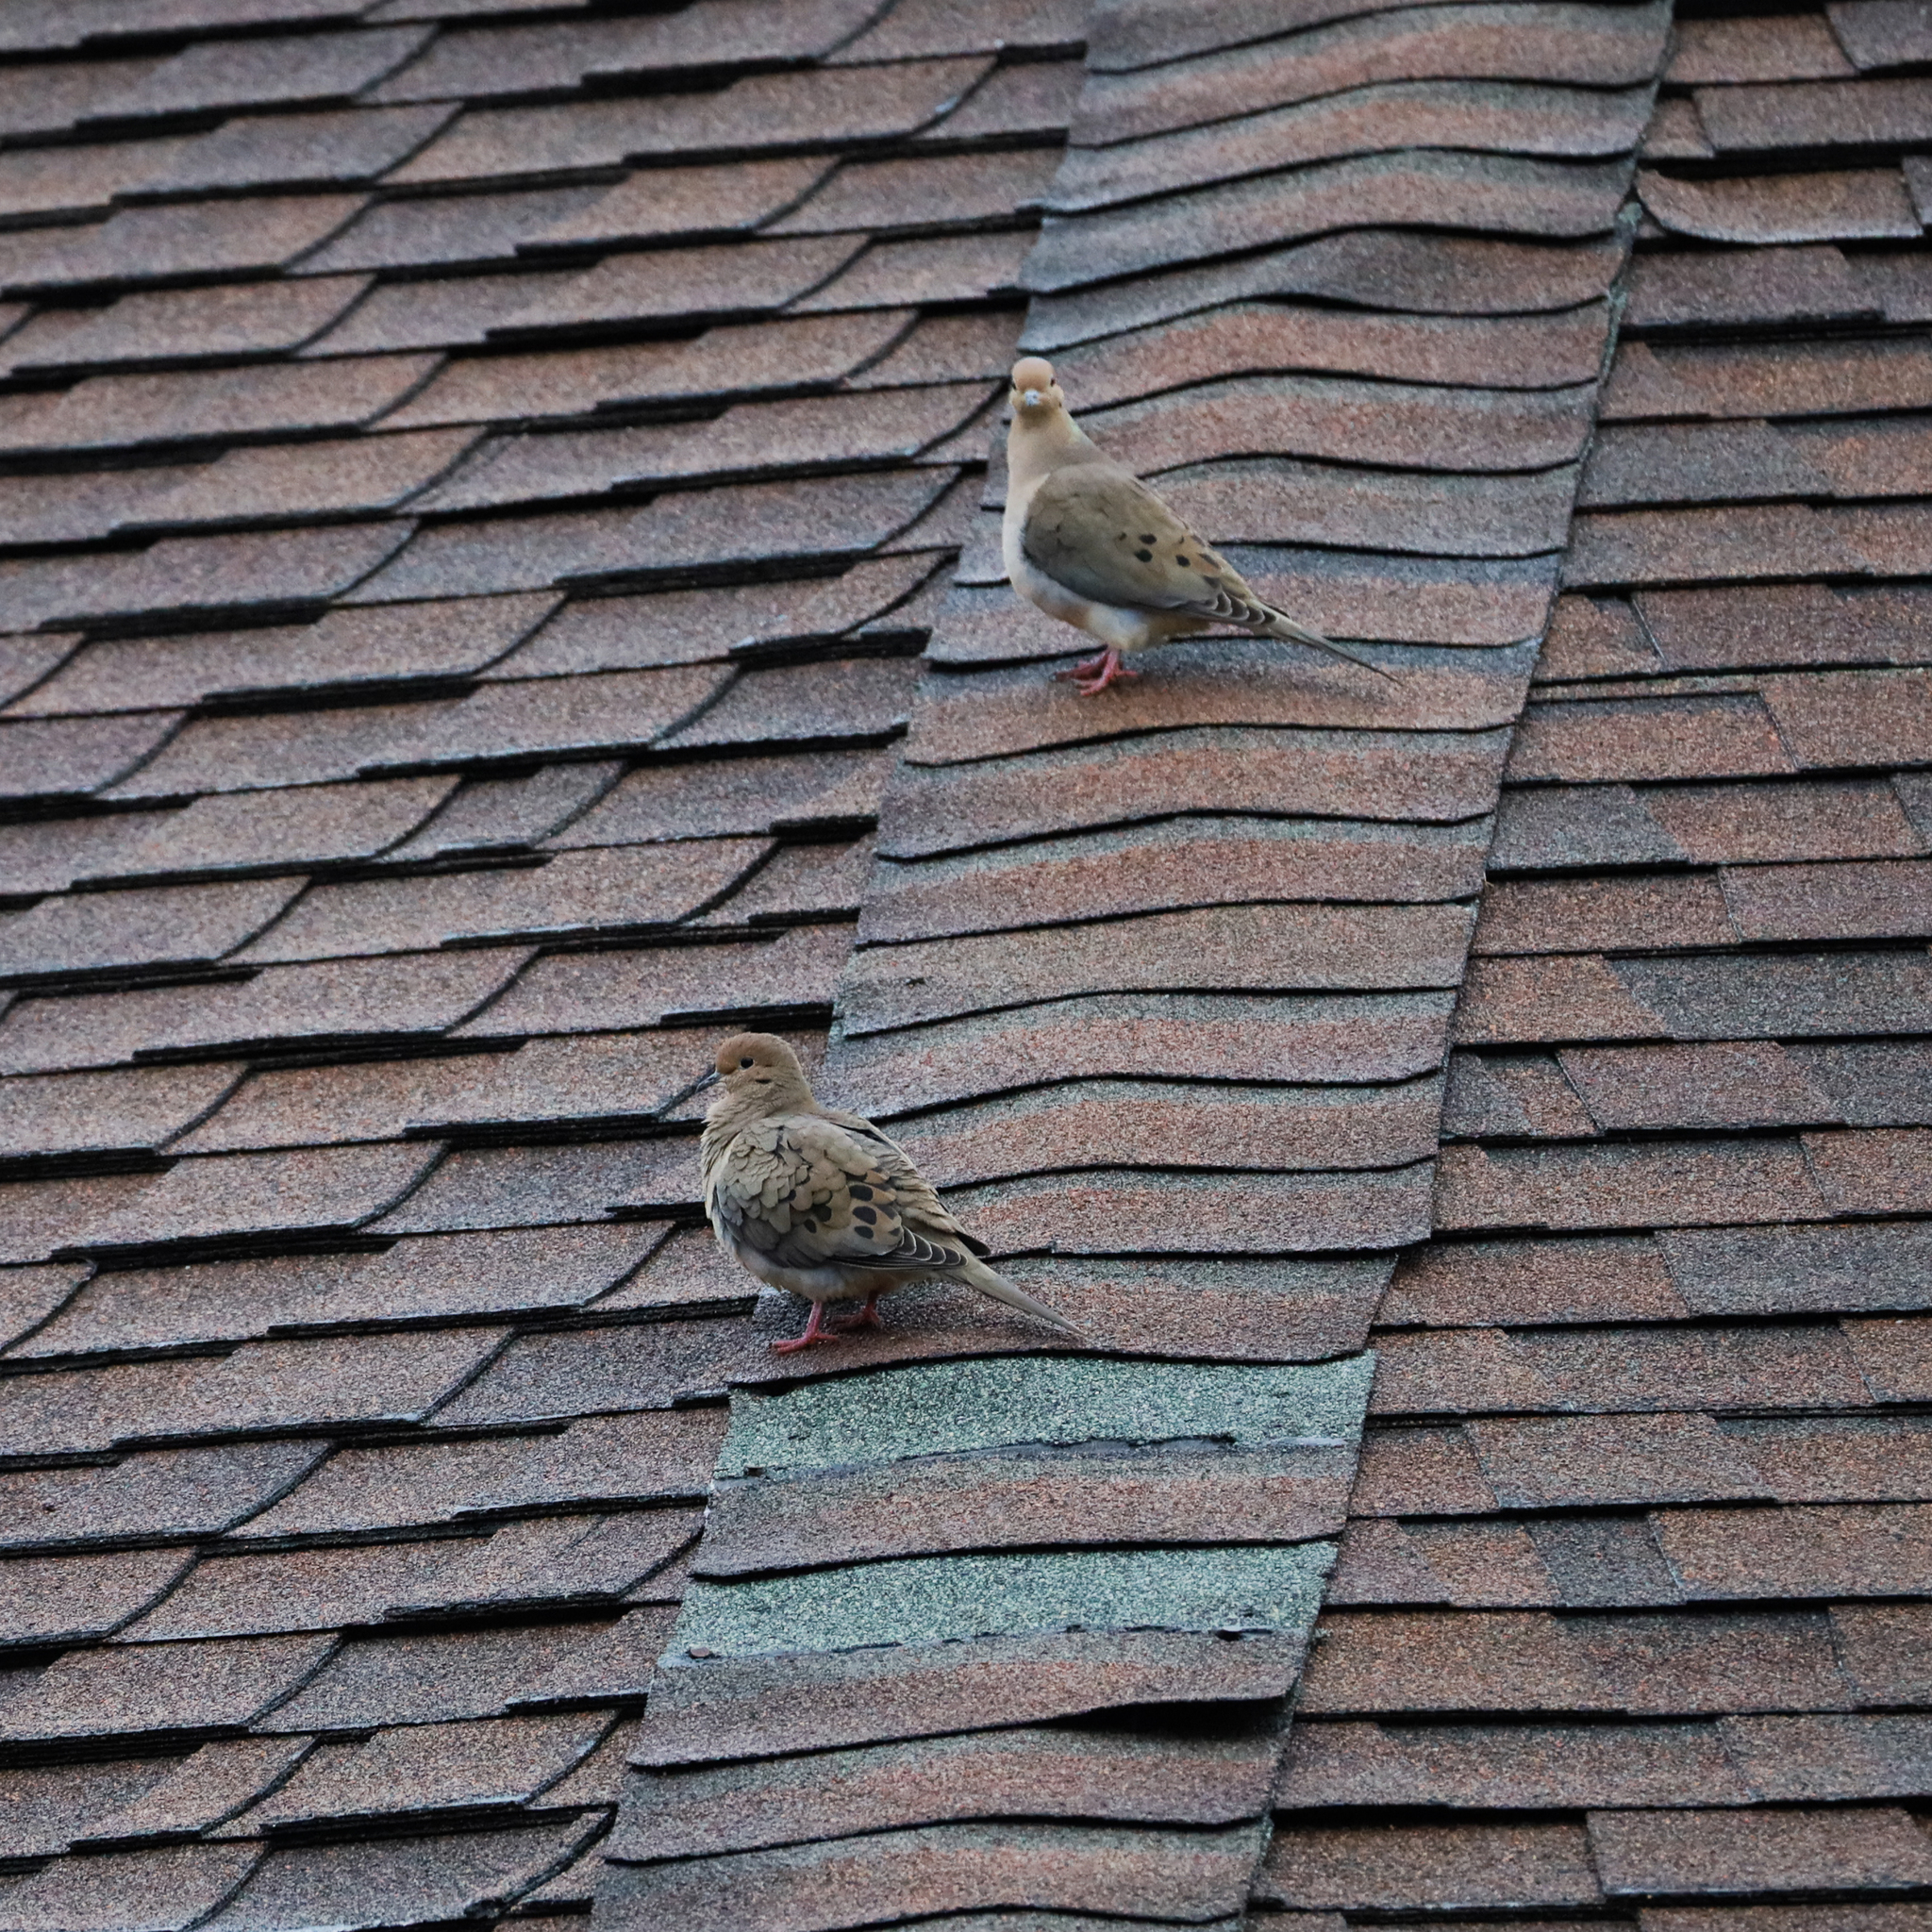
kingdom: Animalia
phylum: Chordata
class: Aves
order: Columbiformes
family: Columbidae
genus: Zenaida
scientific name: Zenaida macroura
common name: Mourning dove
